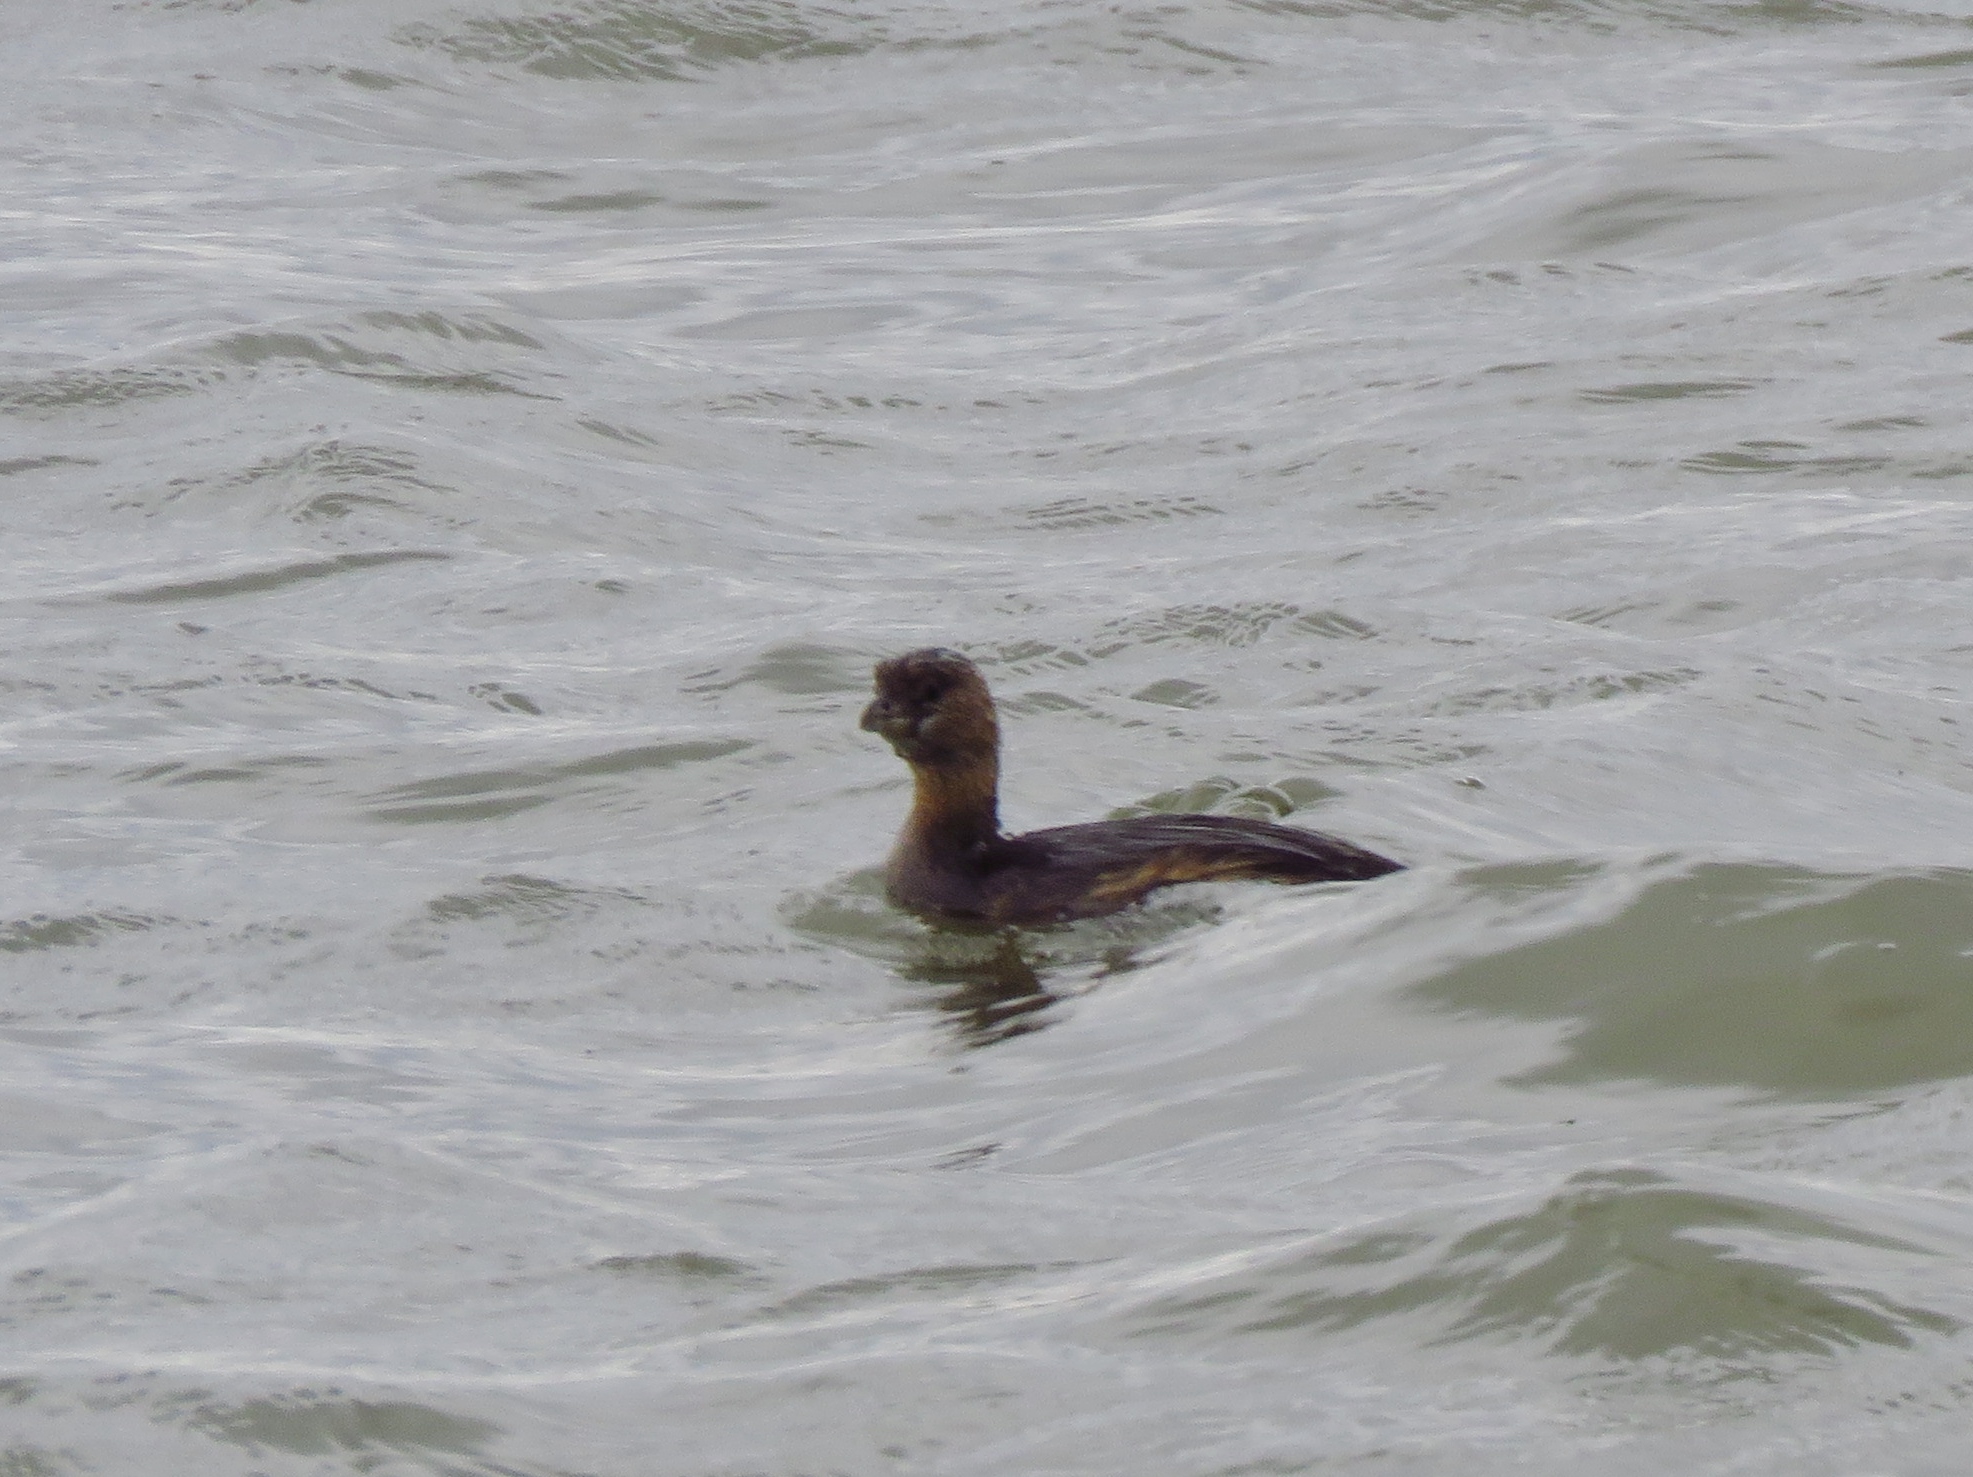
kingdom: Animalia
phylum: Chordata
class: Aves
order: Podicipediformes
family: Podicipedidae
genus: Podilymbus
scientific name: Podilymbus podiceps
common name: Pied-billed grebe
